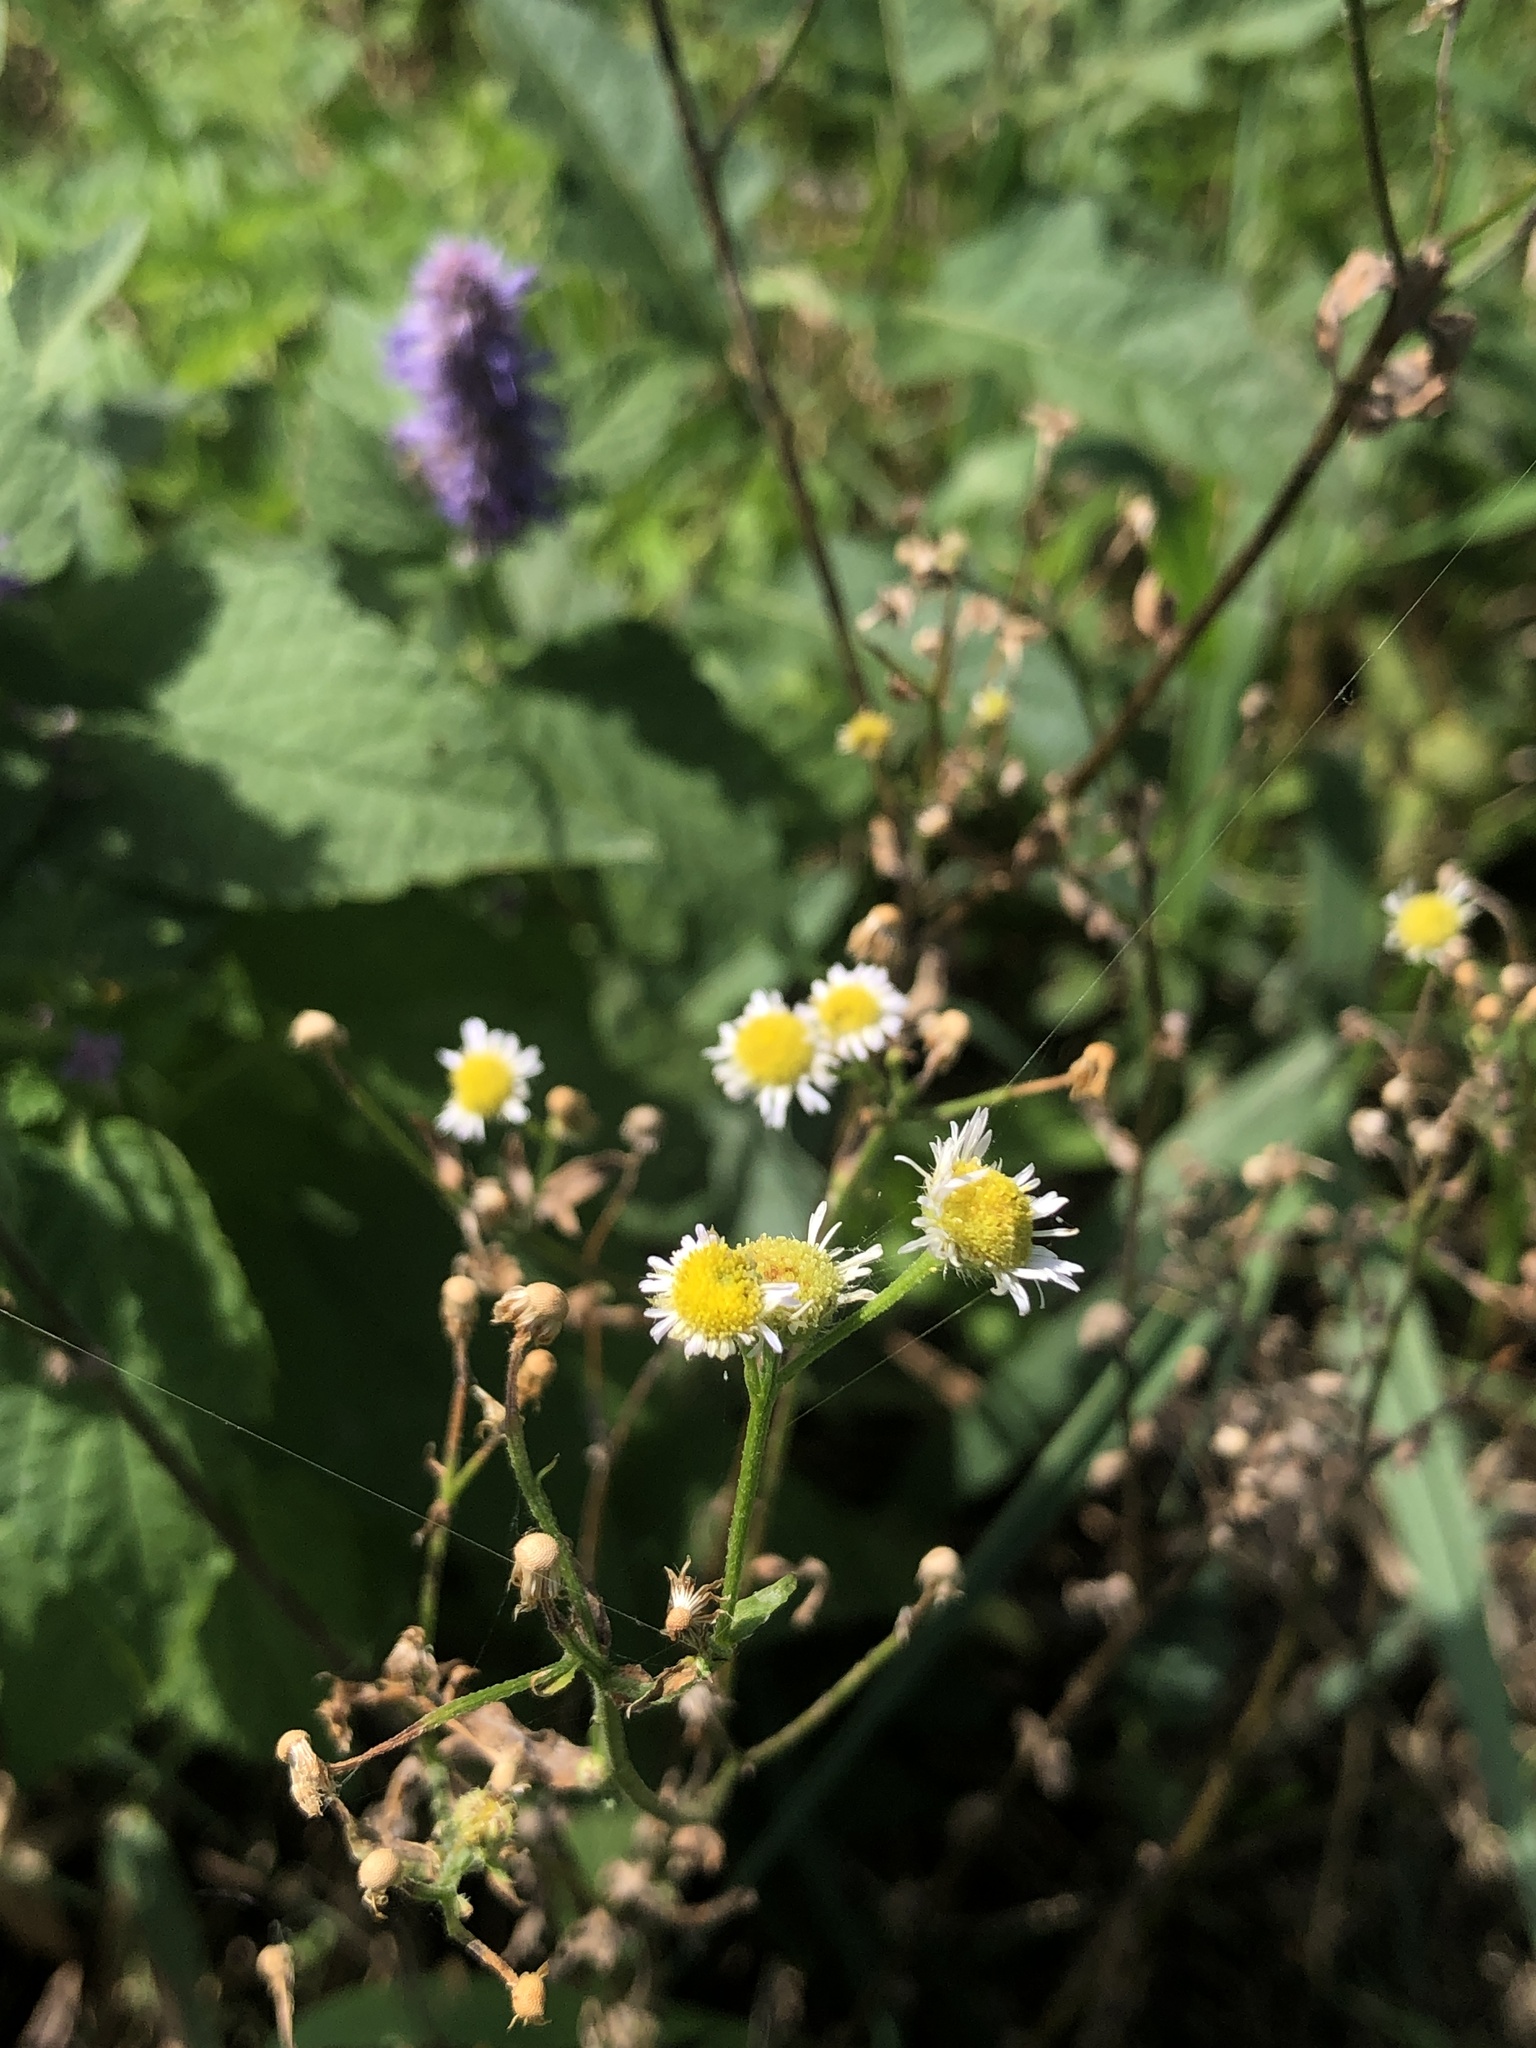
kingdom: Plantae
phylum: Tracheophyta
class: Magnoliopsida
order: Asterales
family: Asteraceae
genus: Erigeron
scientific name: Erigeron strigosus
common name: Common eastern fleabane
